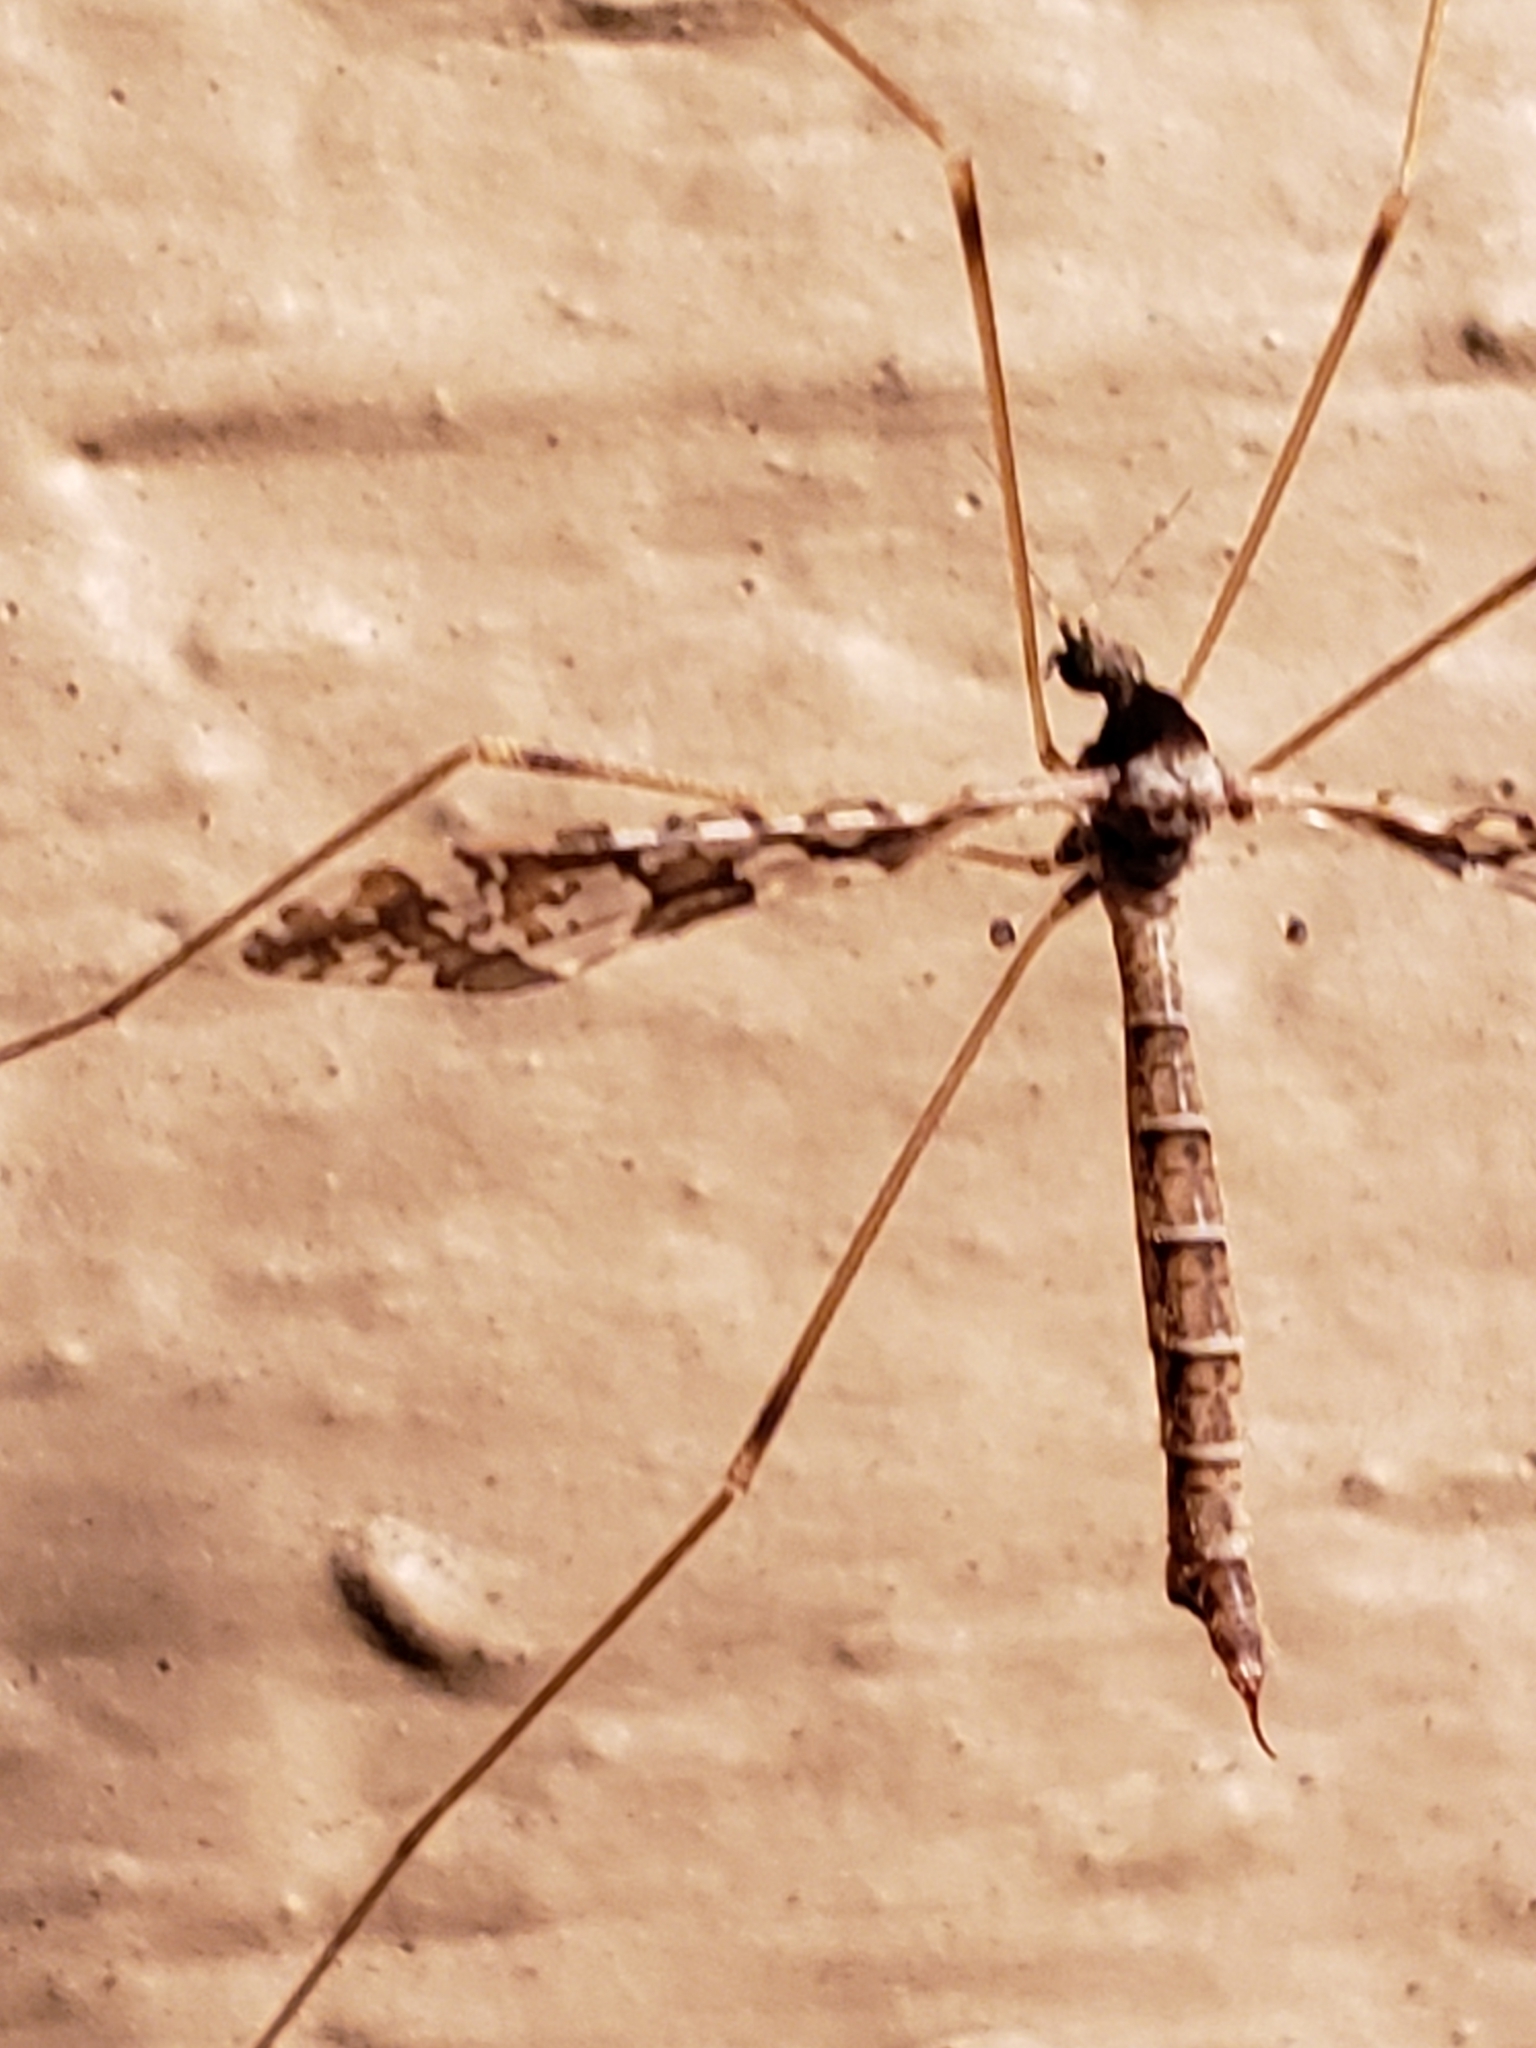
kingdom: Animalia
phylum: Arthropoda
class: Insecta
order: Diptera
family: Limoniidae
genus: Epiphragma
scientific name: Epiphragma solatrix
